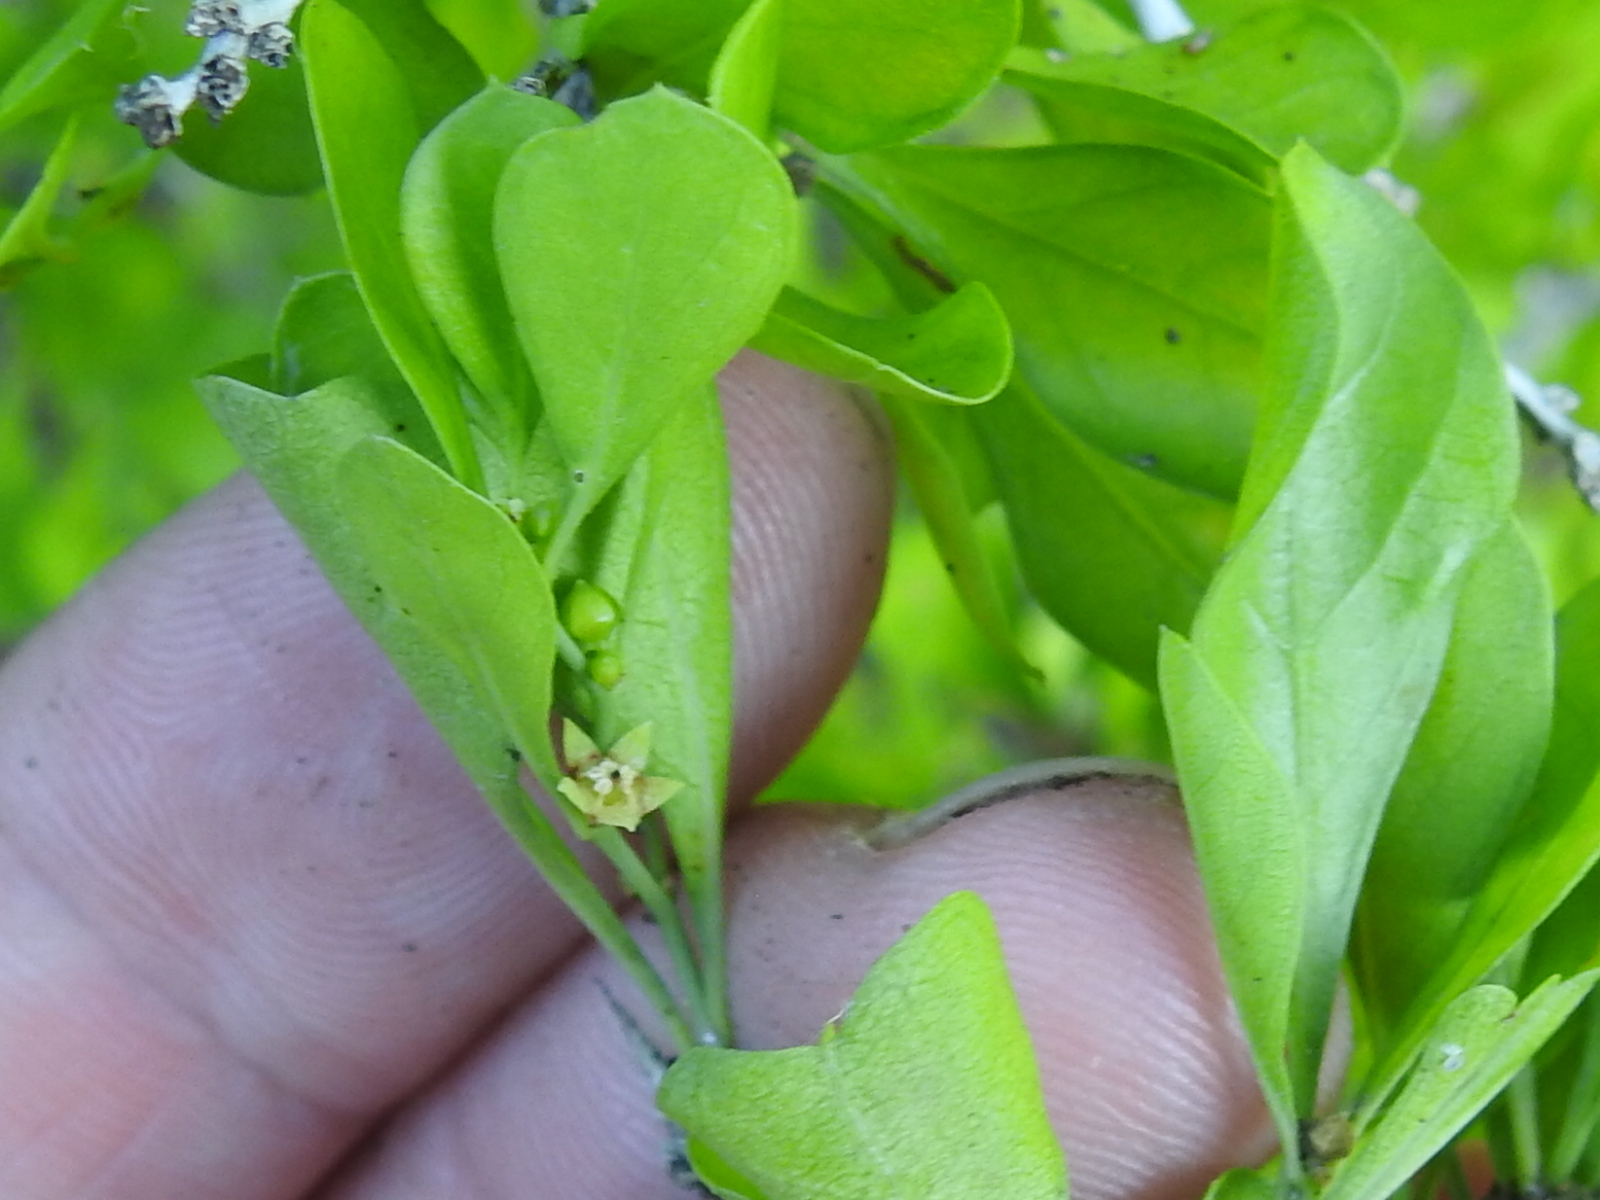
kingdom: Plantae
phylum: Tracheophyta
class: Magnoliopsida
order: Rosales
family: Rhamnaceae
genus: Condalia
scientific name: Condalia hookeri
